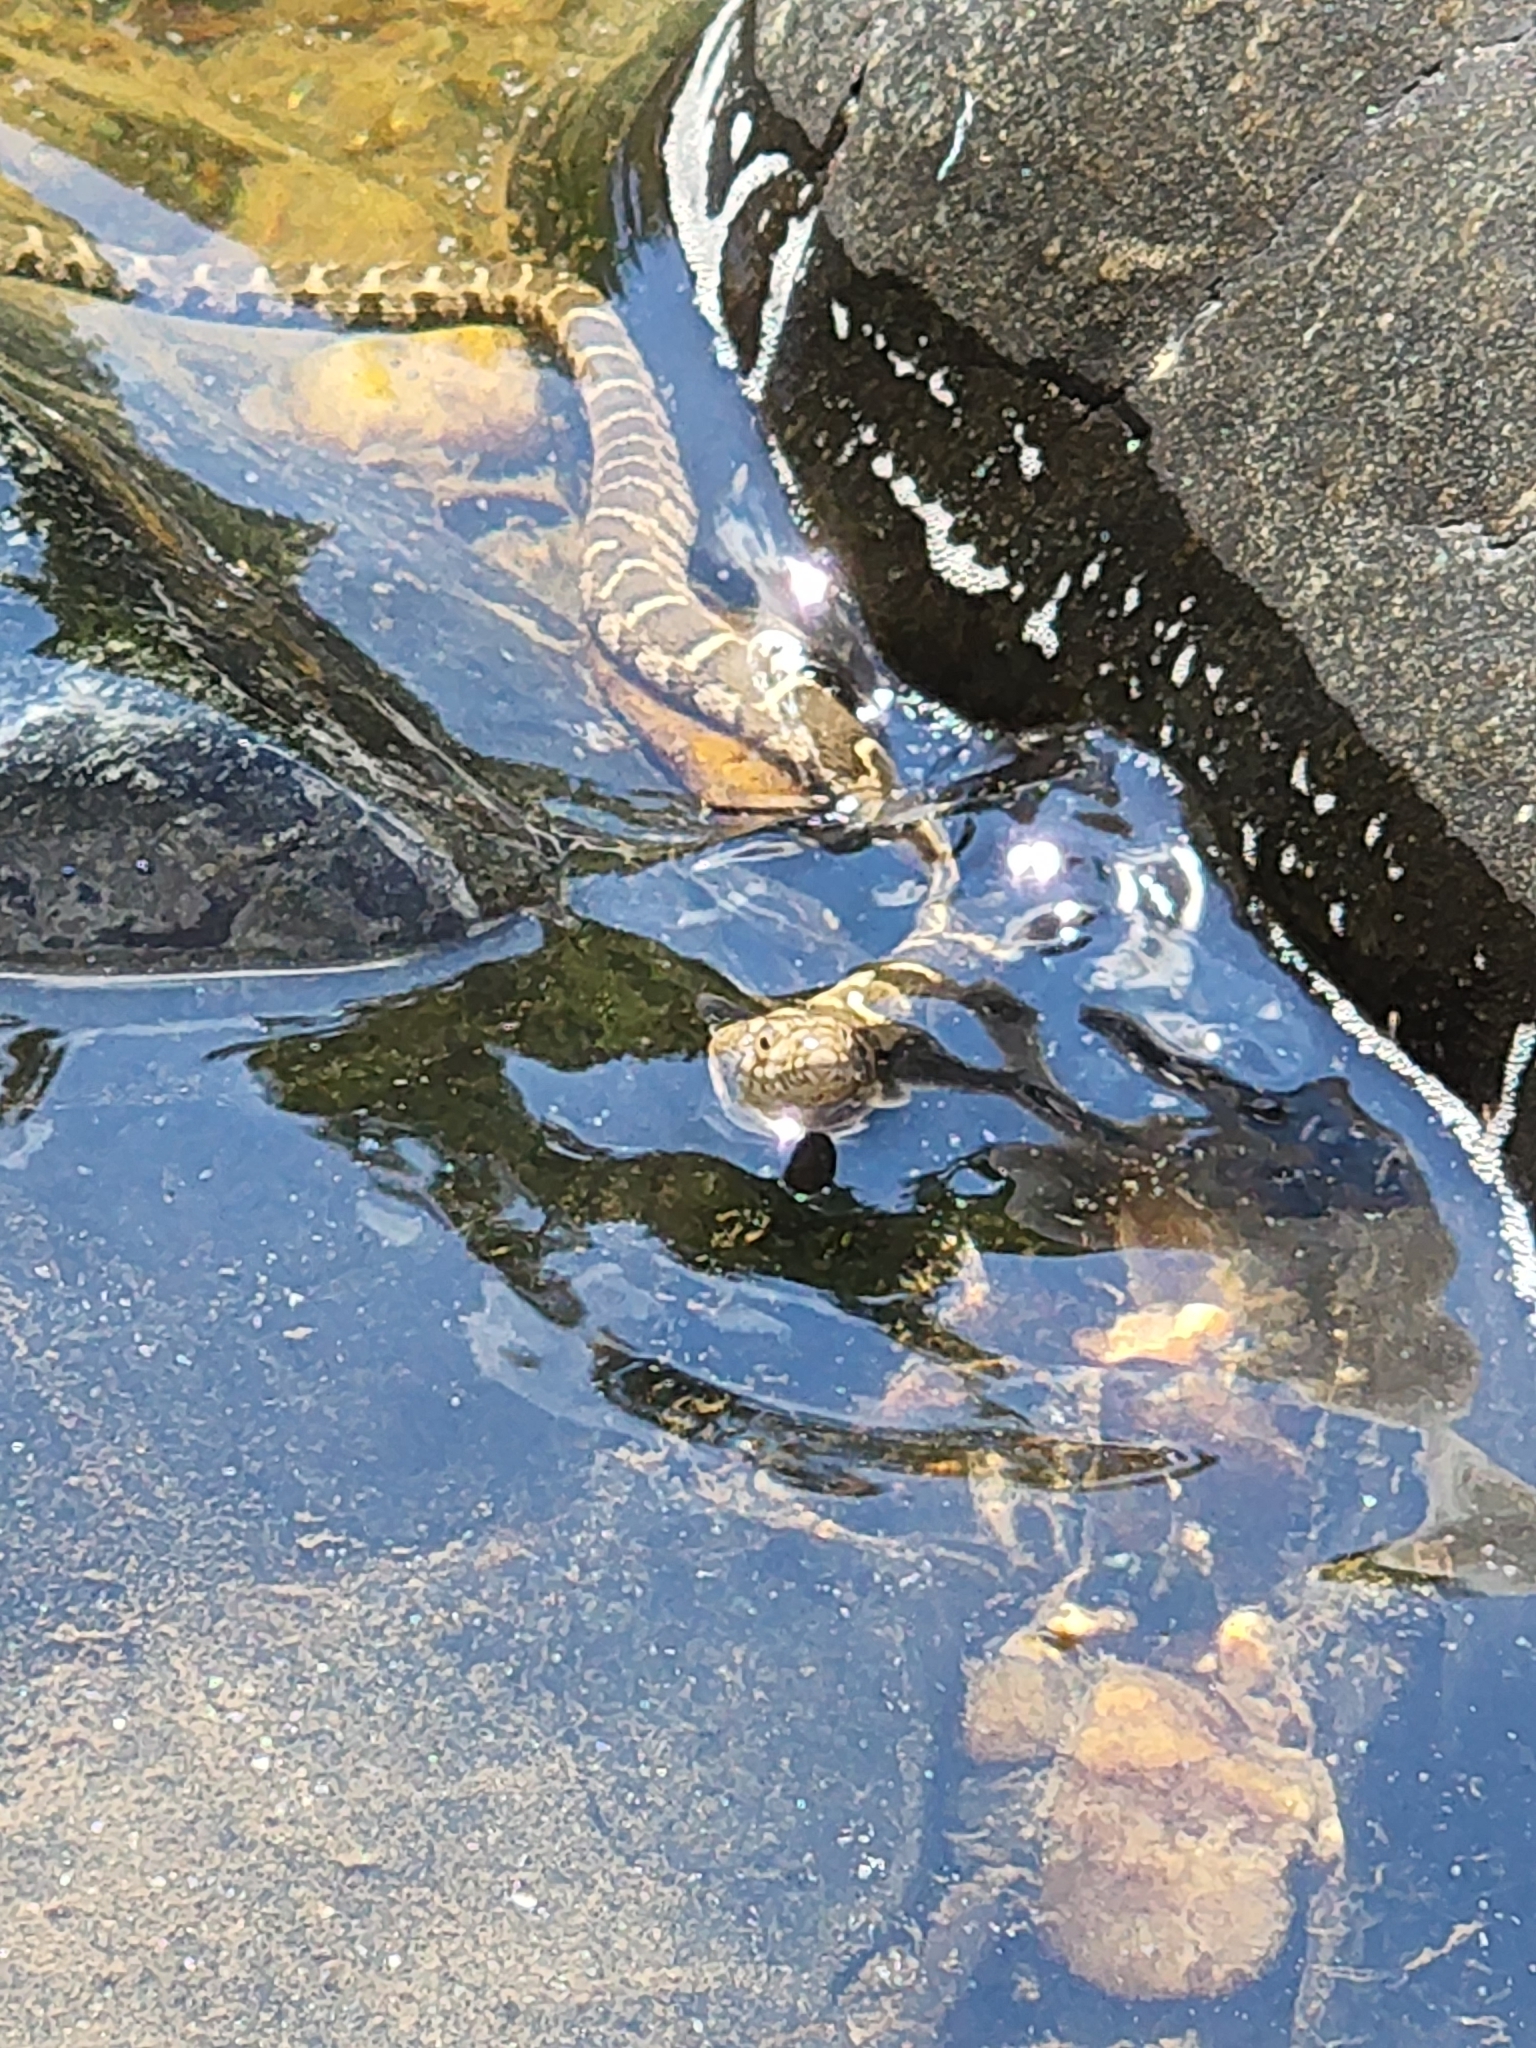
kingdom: Animalia
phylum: Chordata
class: Squamata
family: Colubridae
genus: Nerodia
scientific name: Nerodia sipedon
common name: Northern water snake
